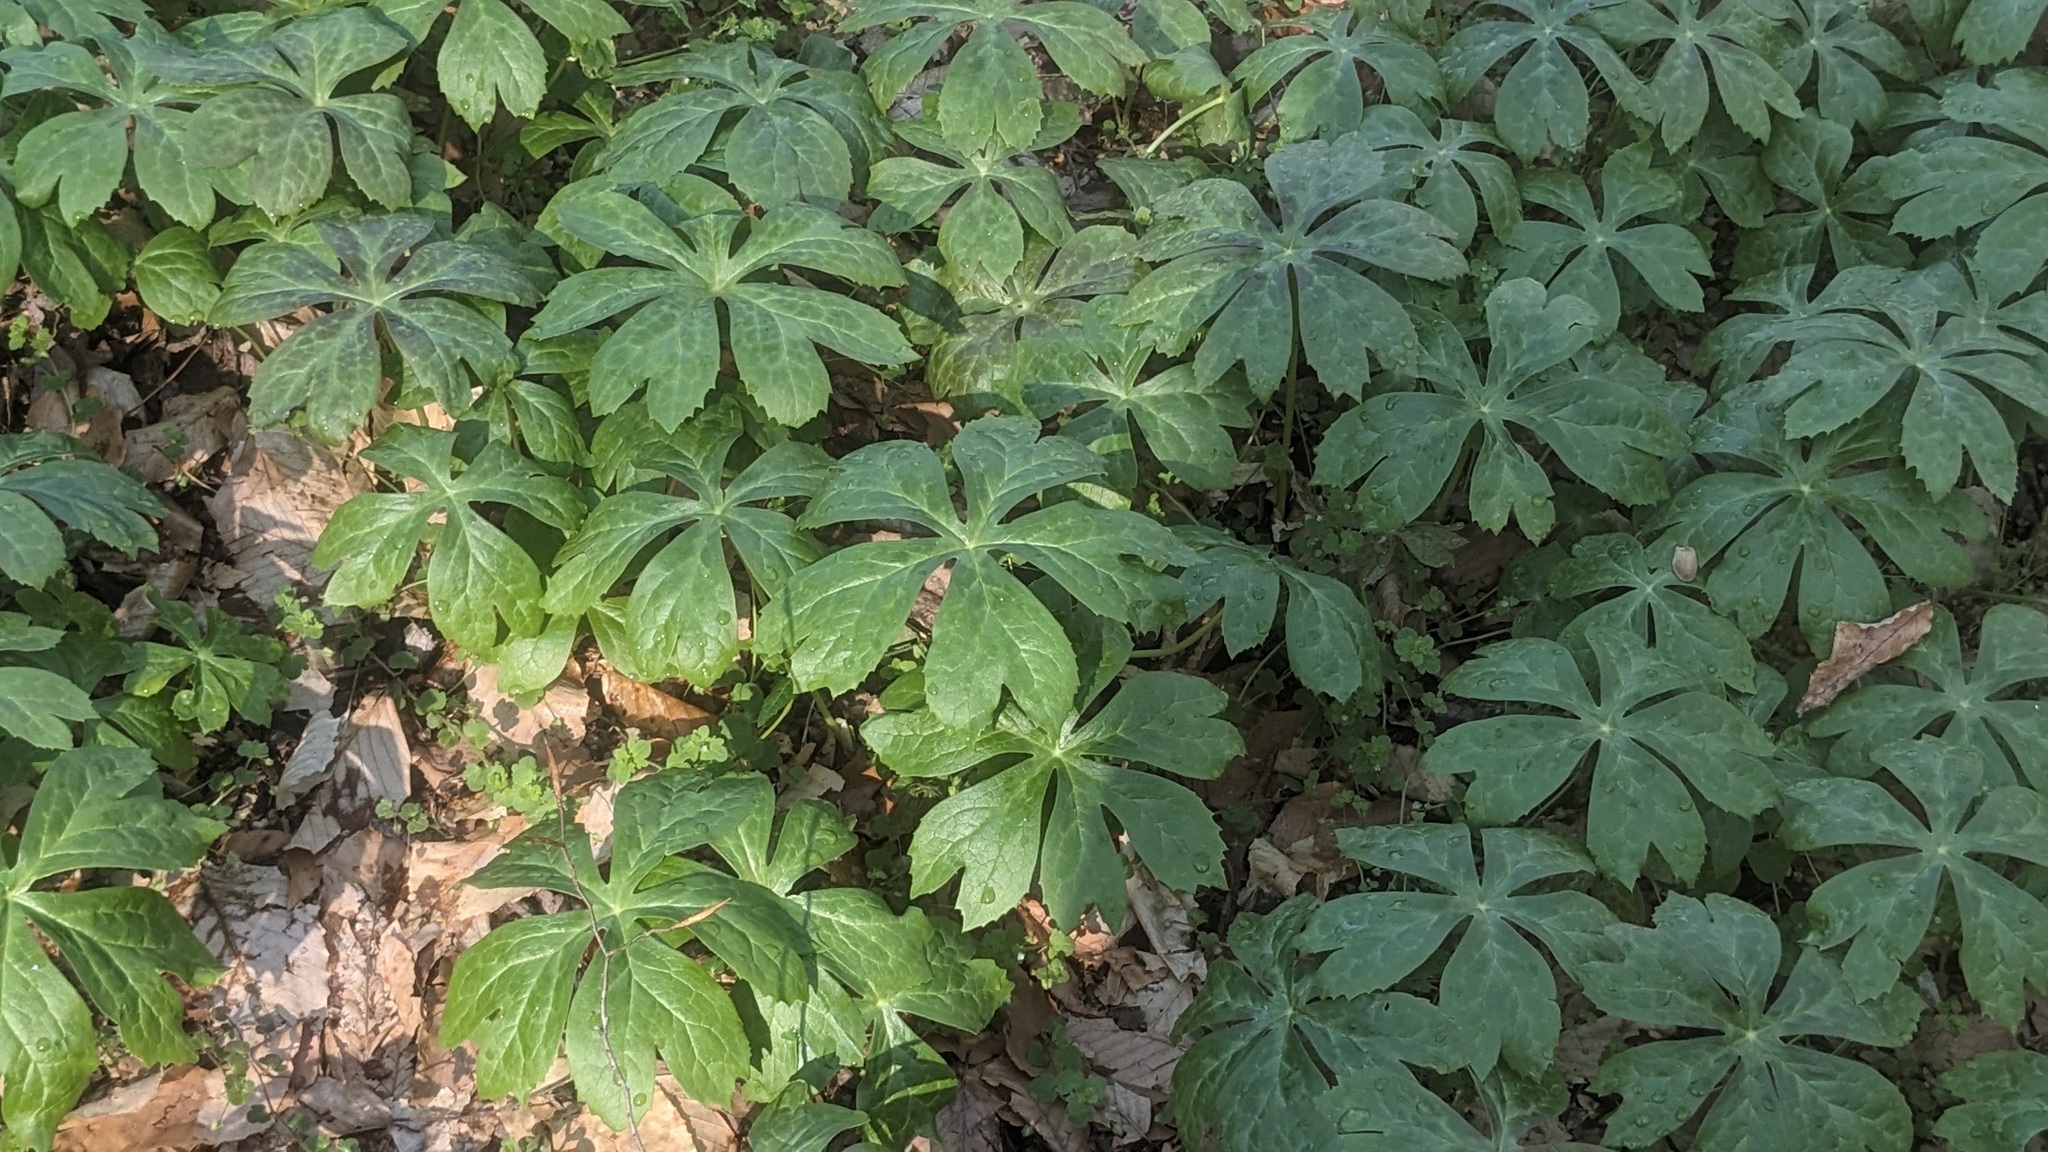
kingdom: Plantae
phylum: Tracheophyta
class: Magnoliopsida
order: Ranunculales
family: Berberidaceae
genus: Podophyllum
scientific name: Podophyllum peltatum
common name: Wild mandrake
